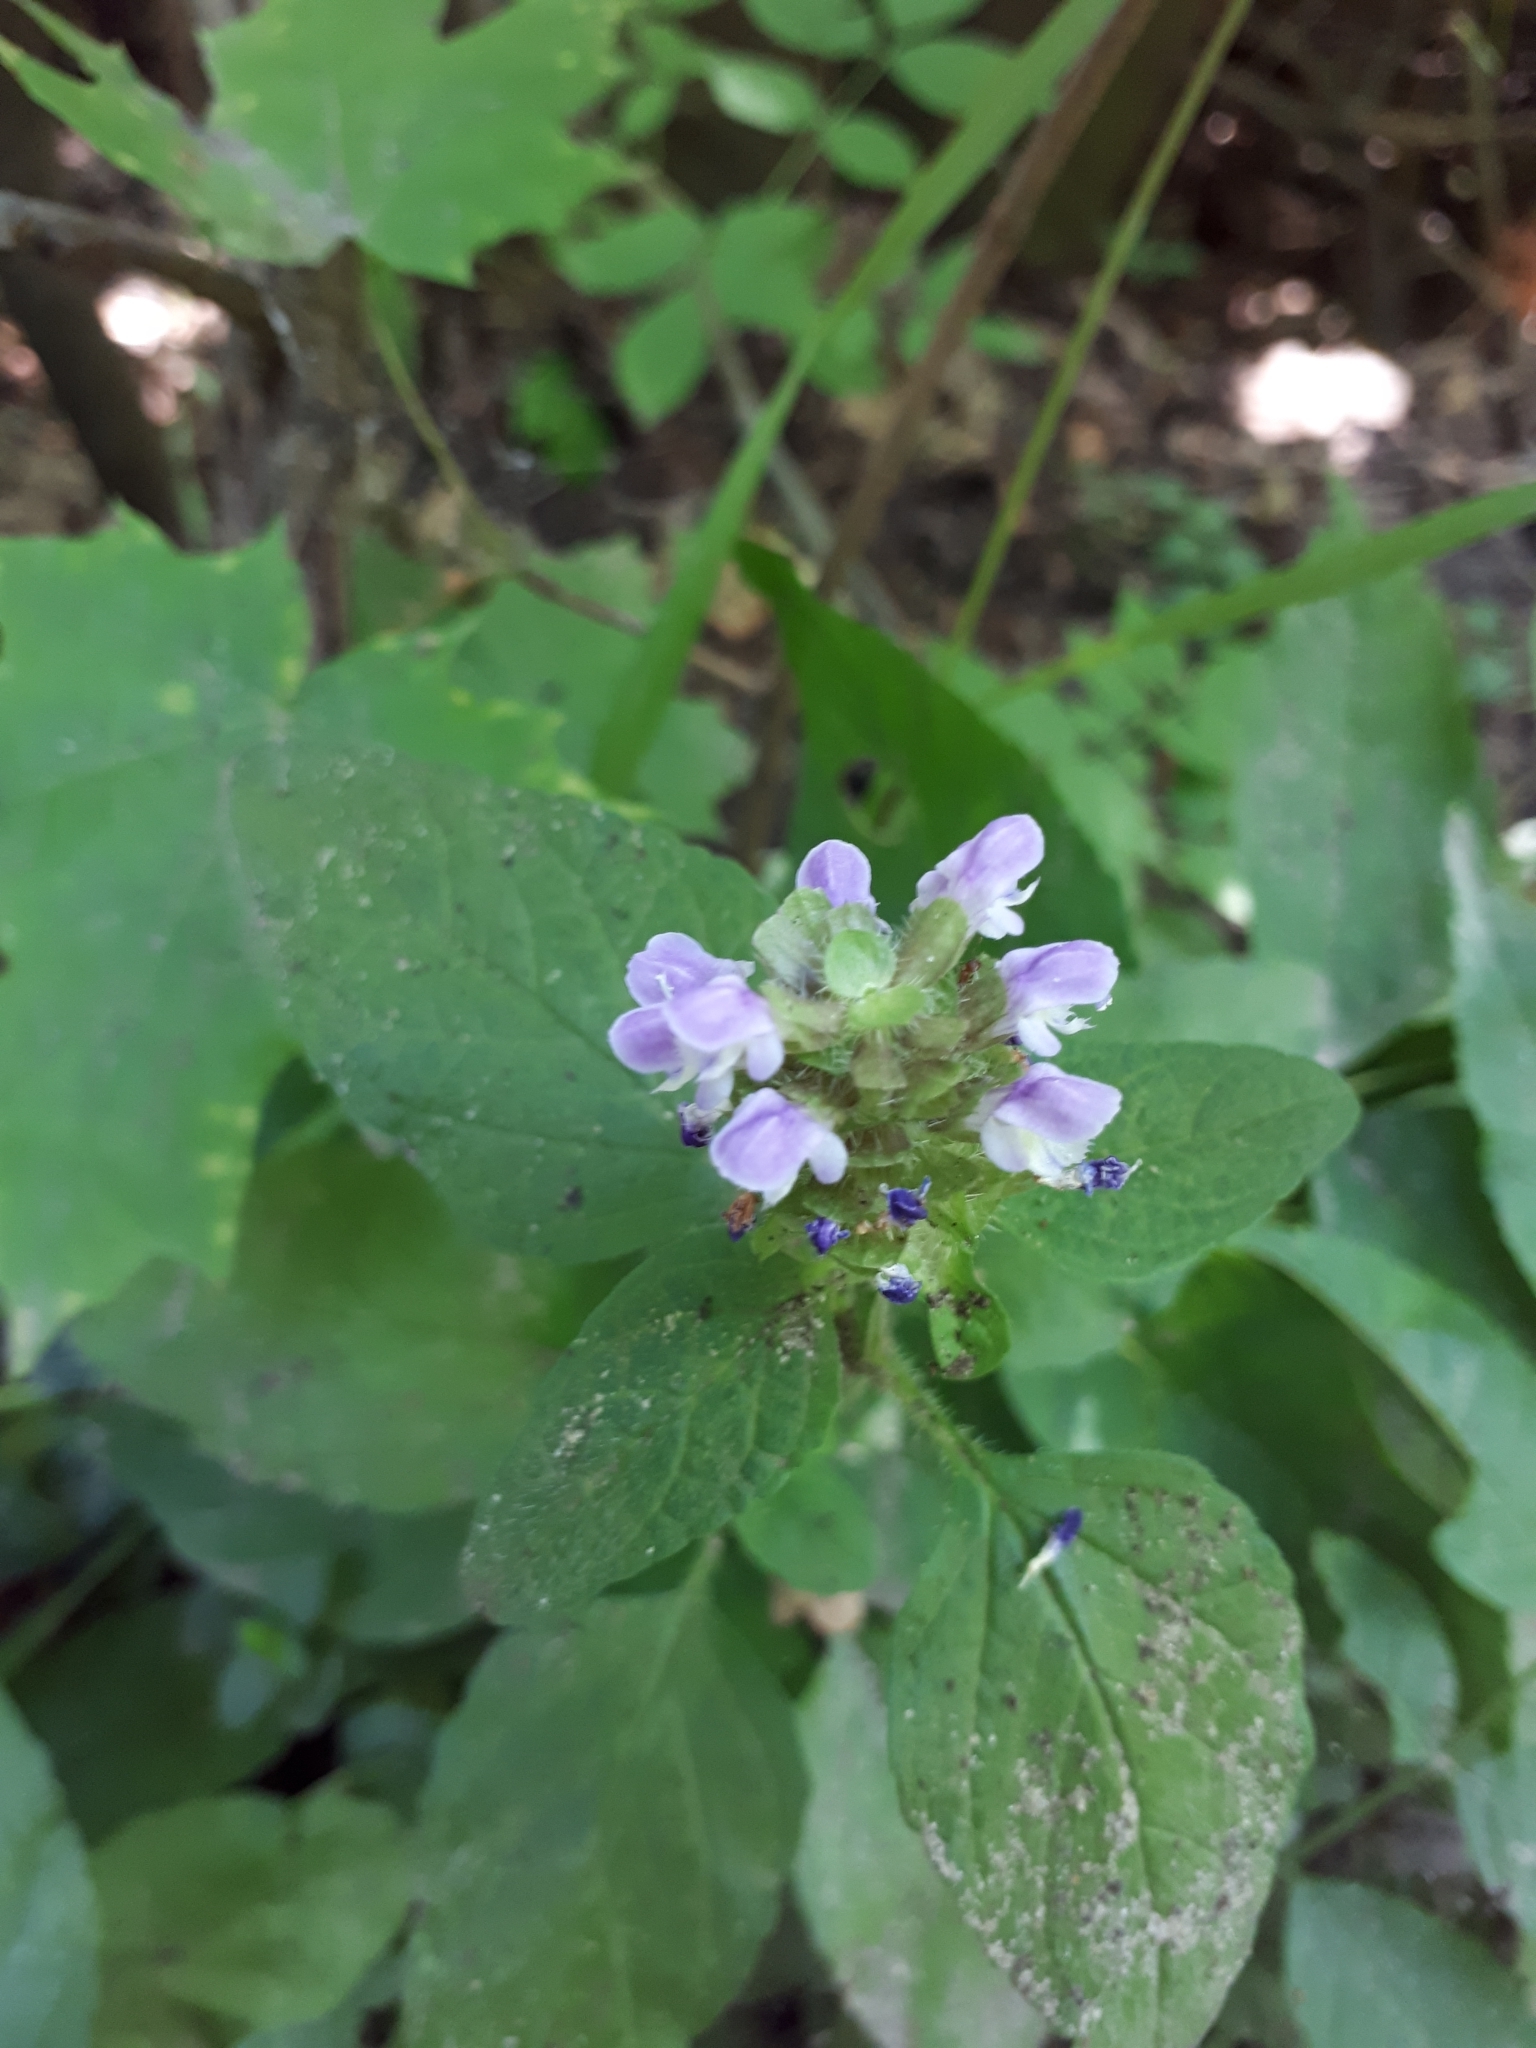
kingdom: Plantae
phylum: Tracheophyta
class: Magnoliopsida
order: Lamiales
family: Lamiaceae
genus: Prunella
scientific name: Prunella vulgaris
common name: Heal-all
